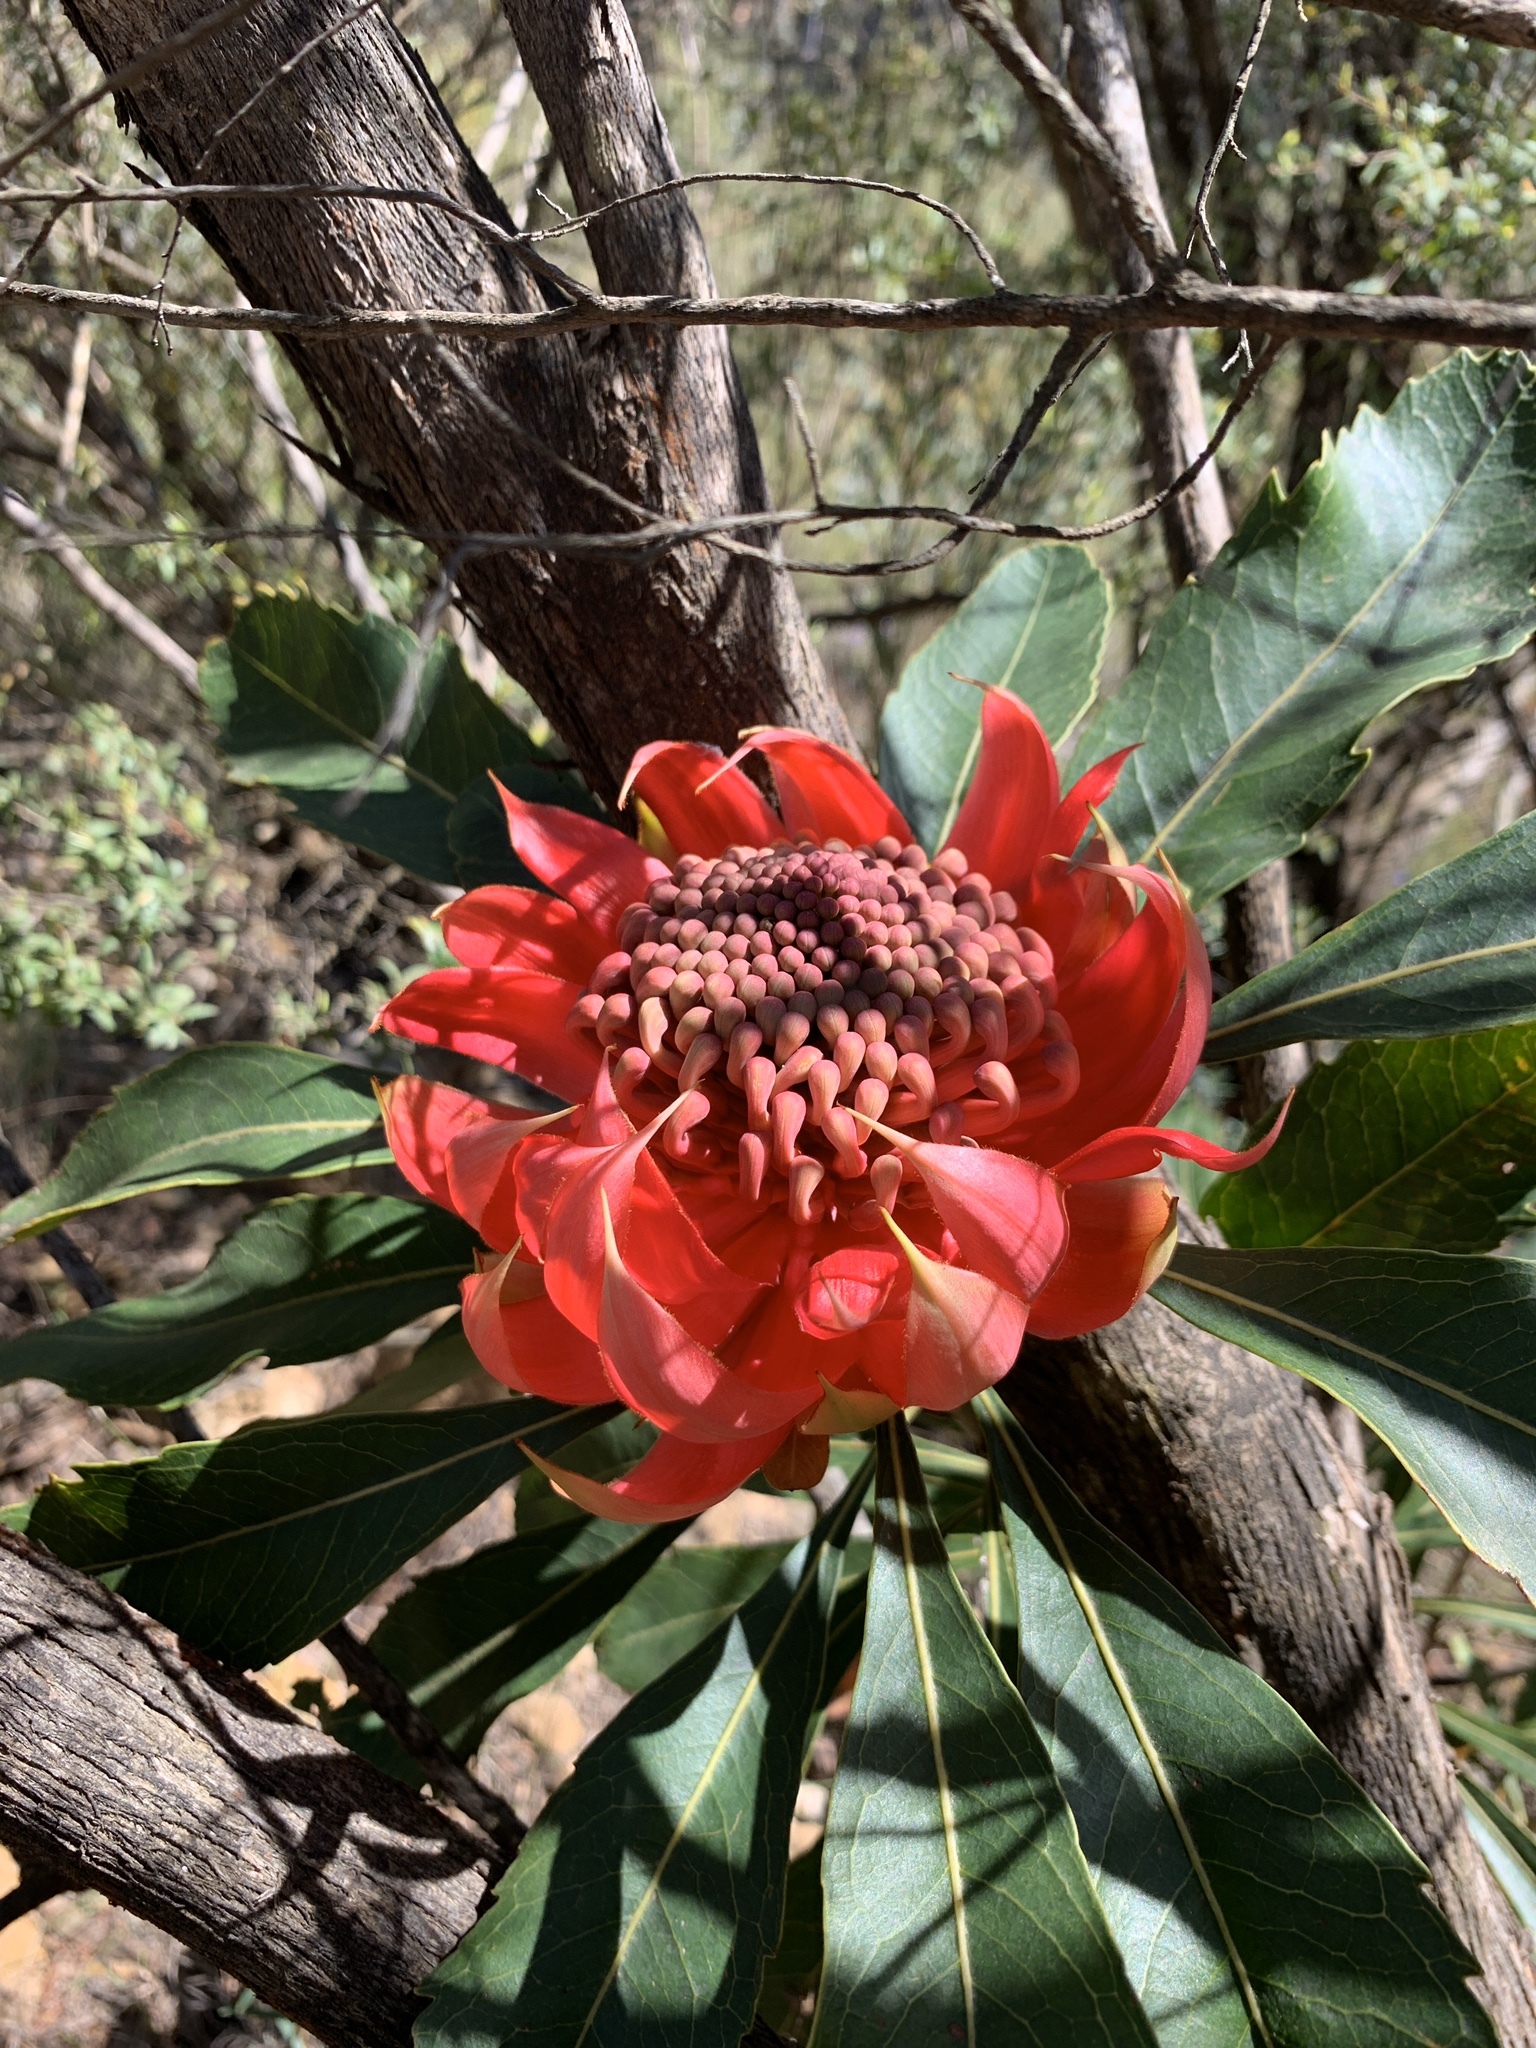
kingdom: Plantae
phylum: Tracheophyta
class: Magnoliopsida
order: Proteales
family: Proteaceae
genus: Telopea
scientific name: Telopea speciosissima
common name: New south wales waratah
